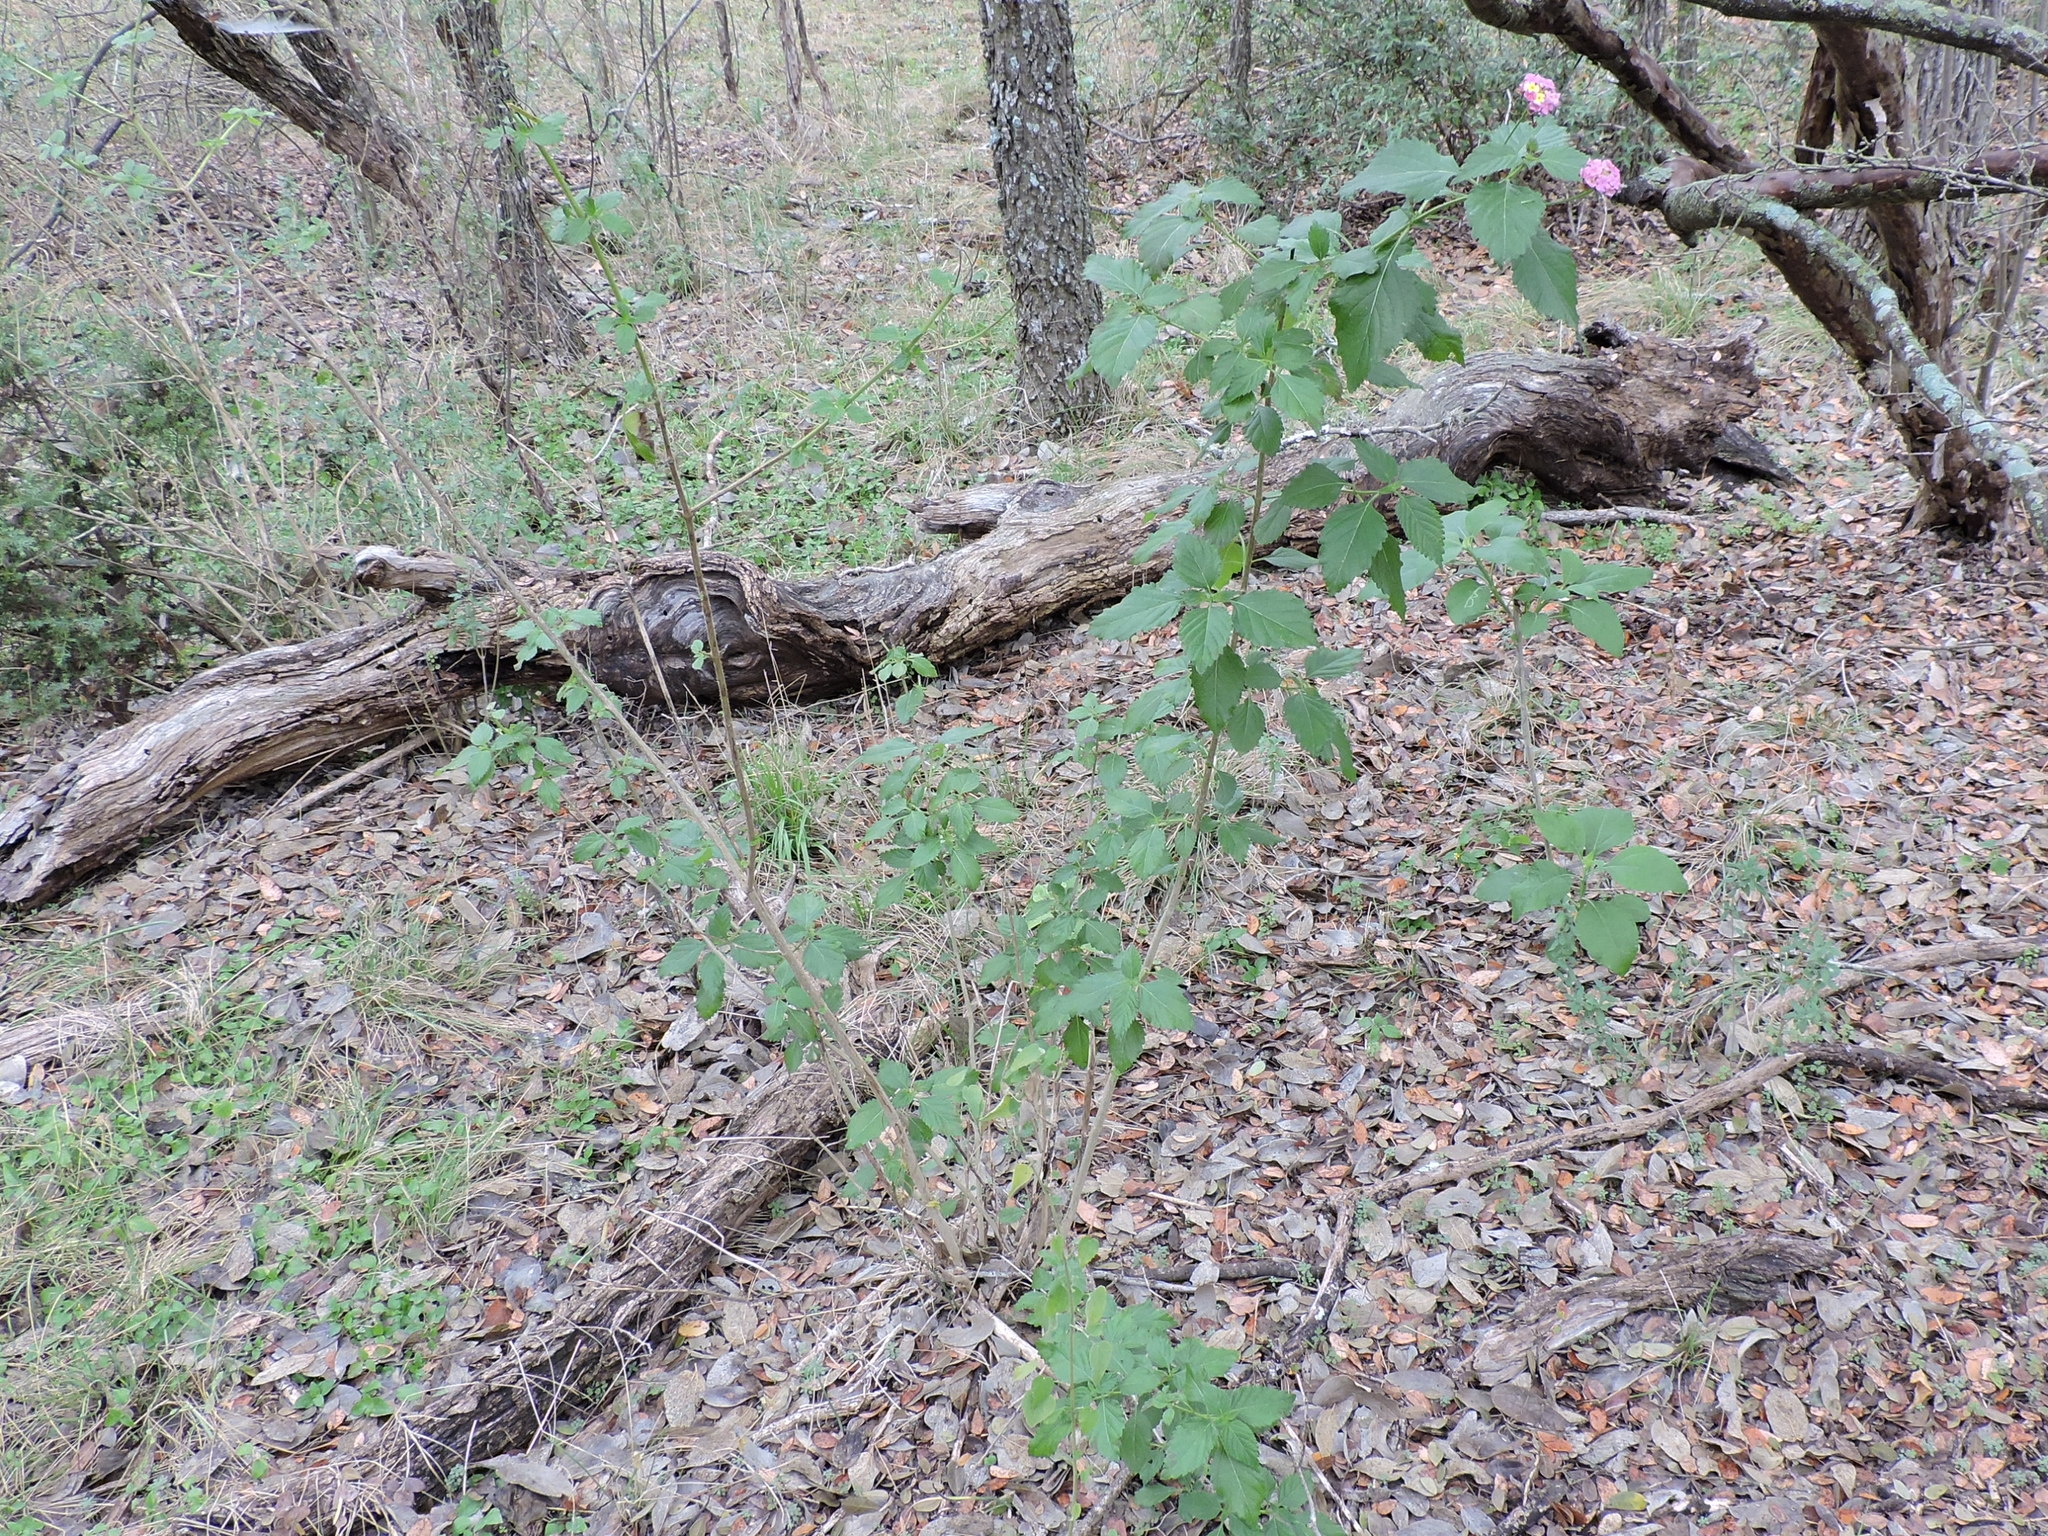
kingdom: Plantae
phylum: Tracheophyta
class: Magnoliopsida
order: Lamiales
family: Verbenaceae
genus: Lantana
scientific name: Lantana strigocamara
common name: Lantana
